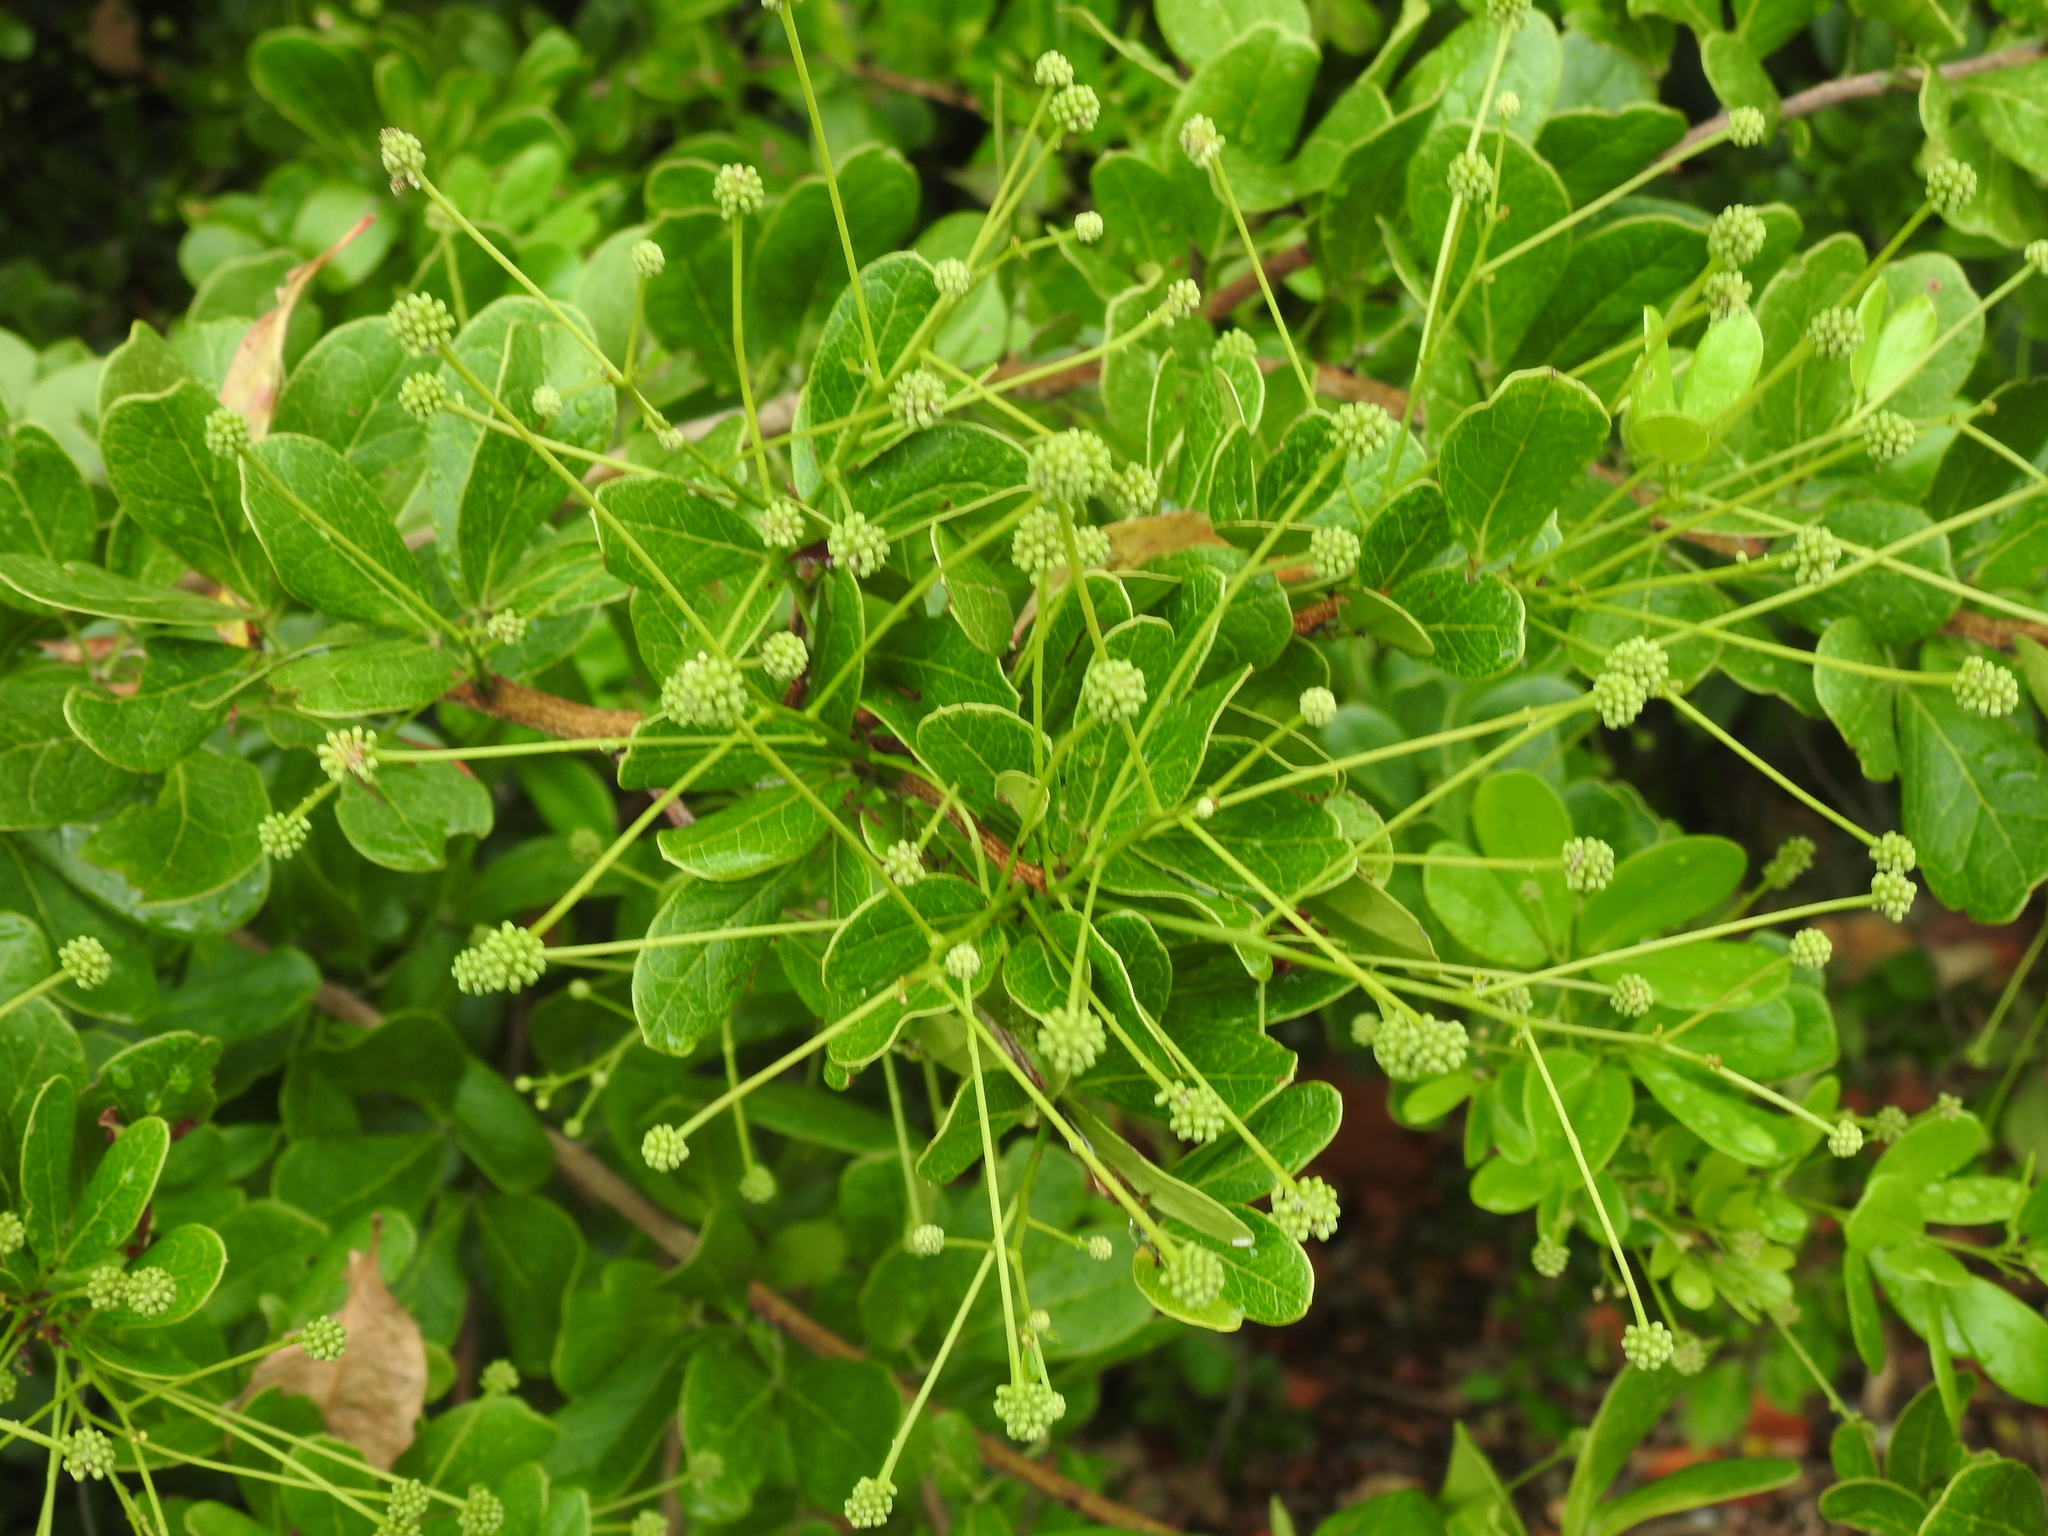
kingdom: Plantae
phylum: Tracheophyta
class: Magnoliopsida
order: Fabales
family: Fabaceae
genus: Pithecellobium
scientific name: Pithecellobium keyense
